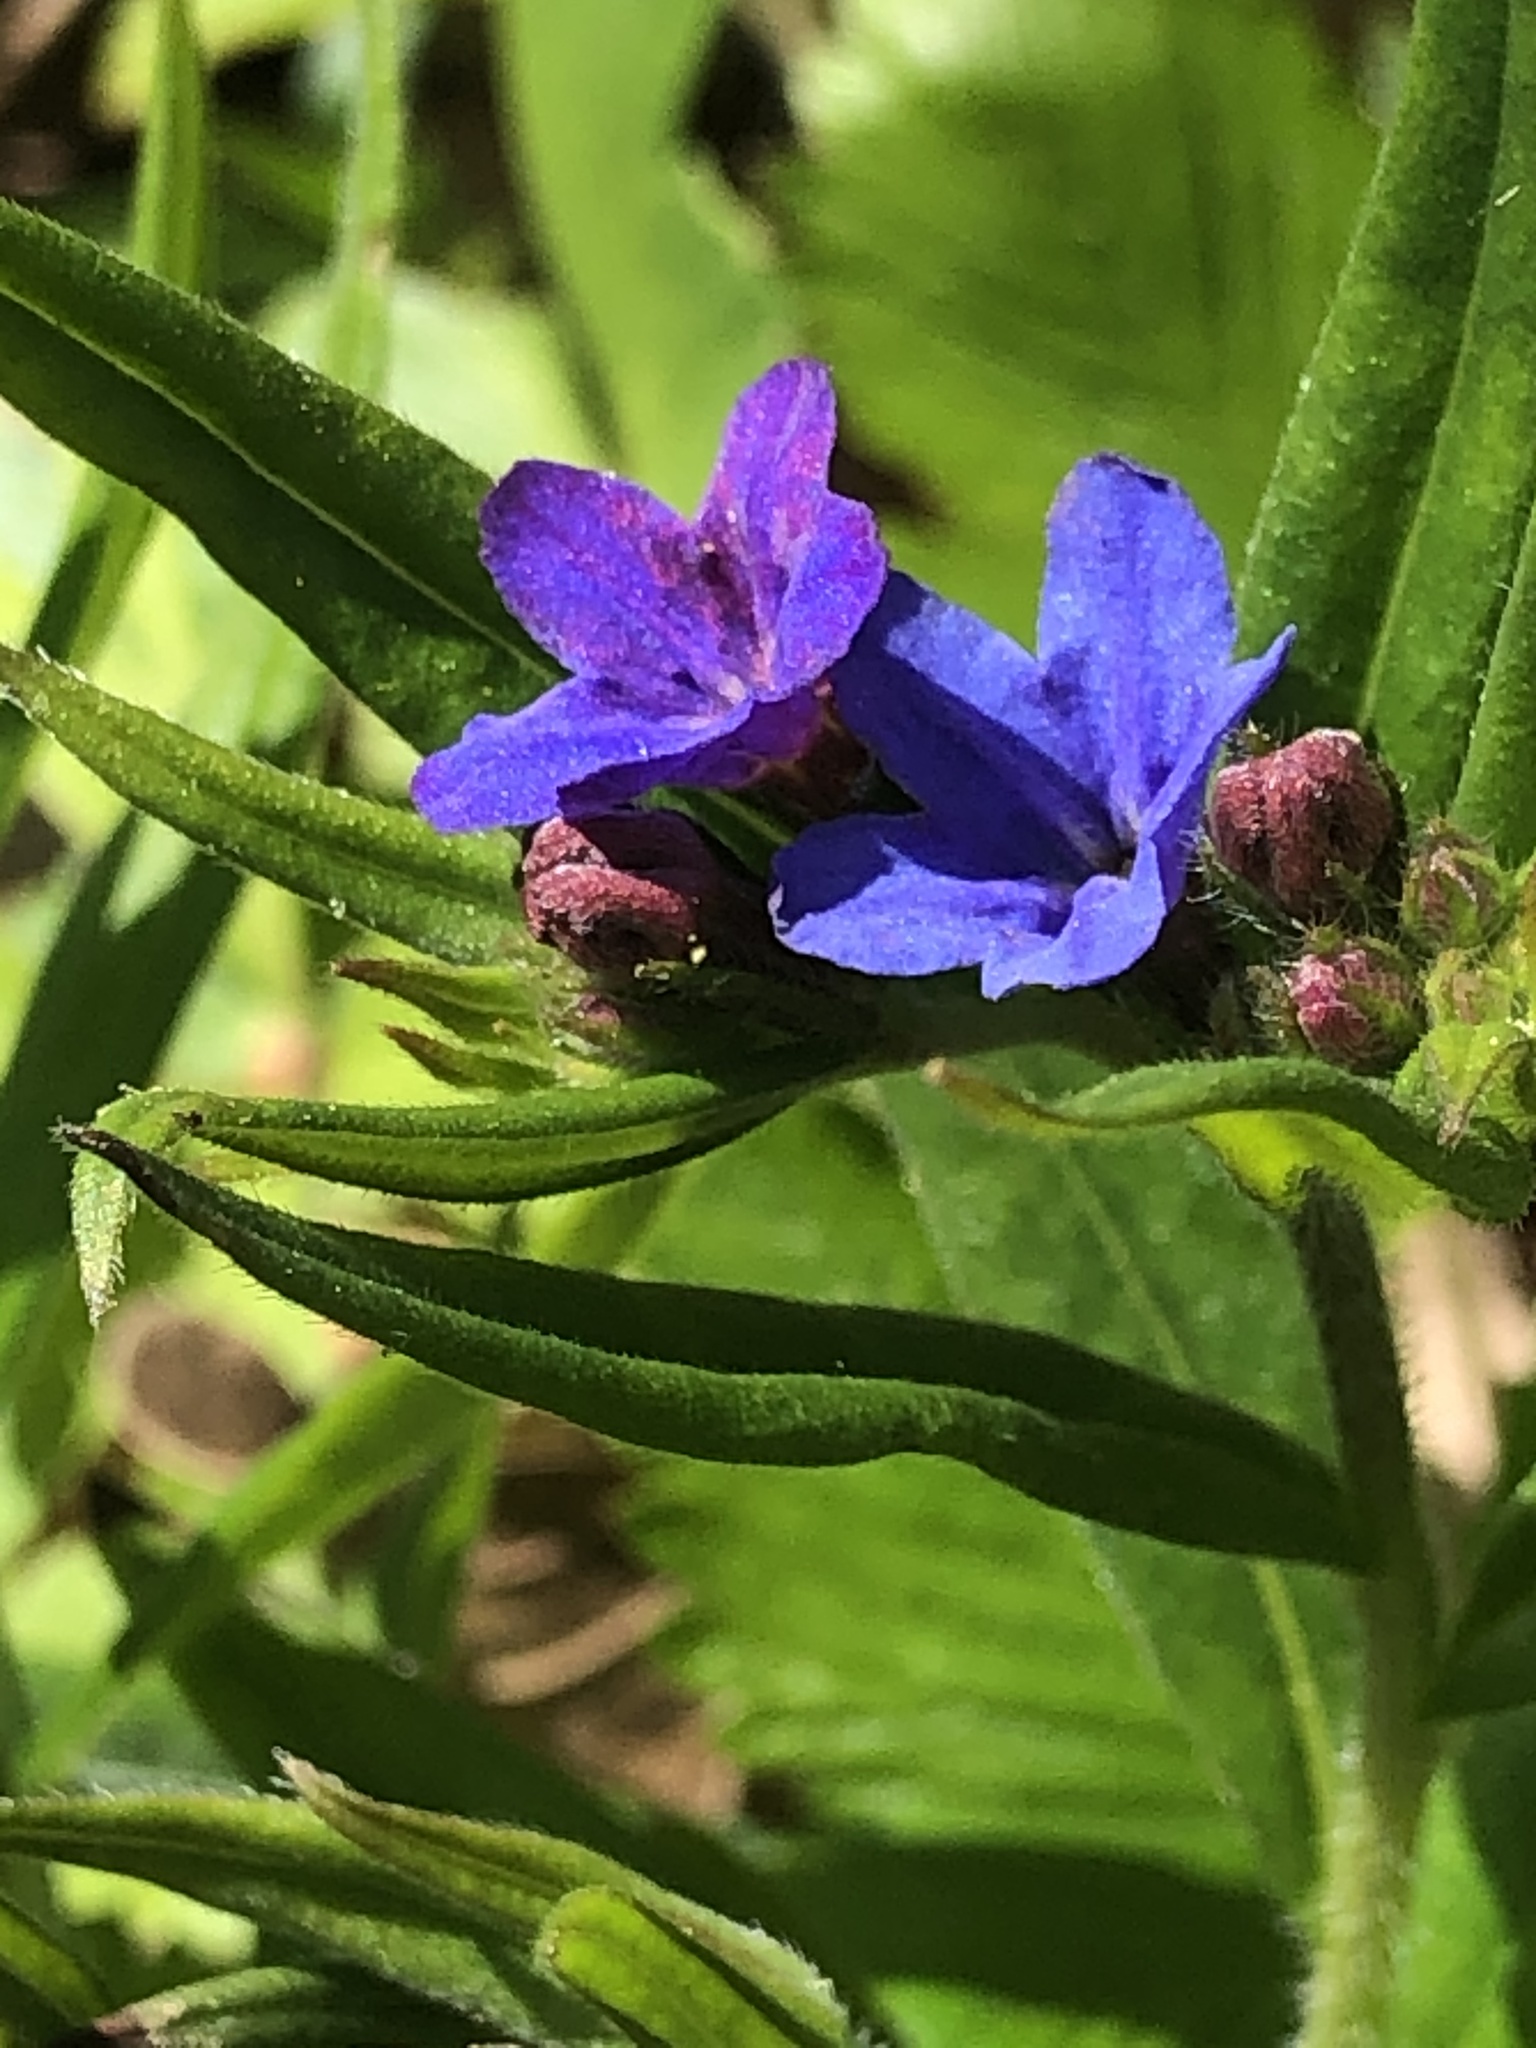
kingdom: Plantae
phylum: Tracheophyta
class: Magnoliopsida
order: Boraginales
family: Boraginaceae
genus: Aegonychon
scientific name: Aegonychon purpurocaeruleum
